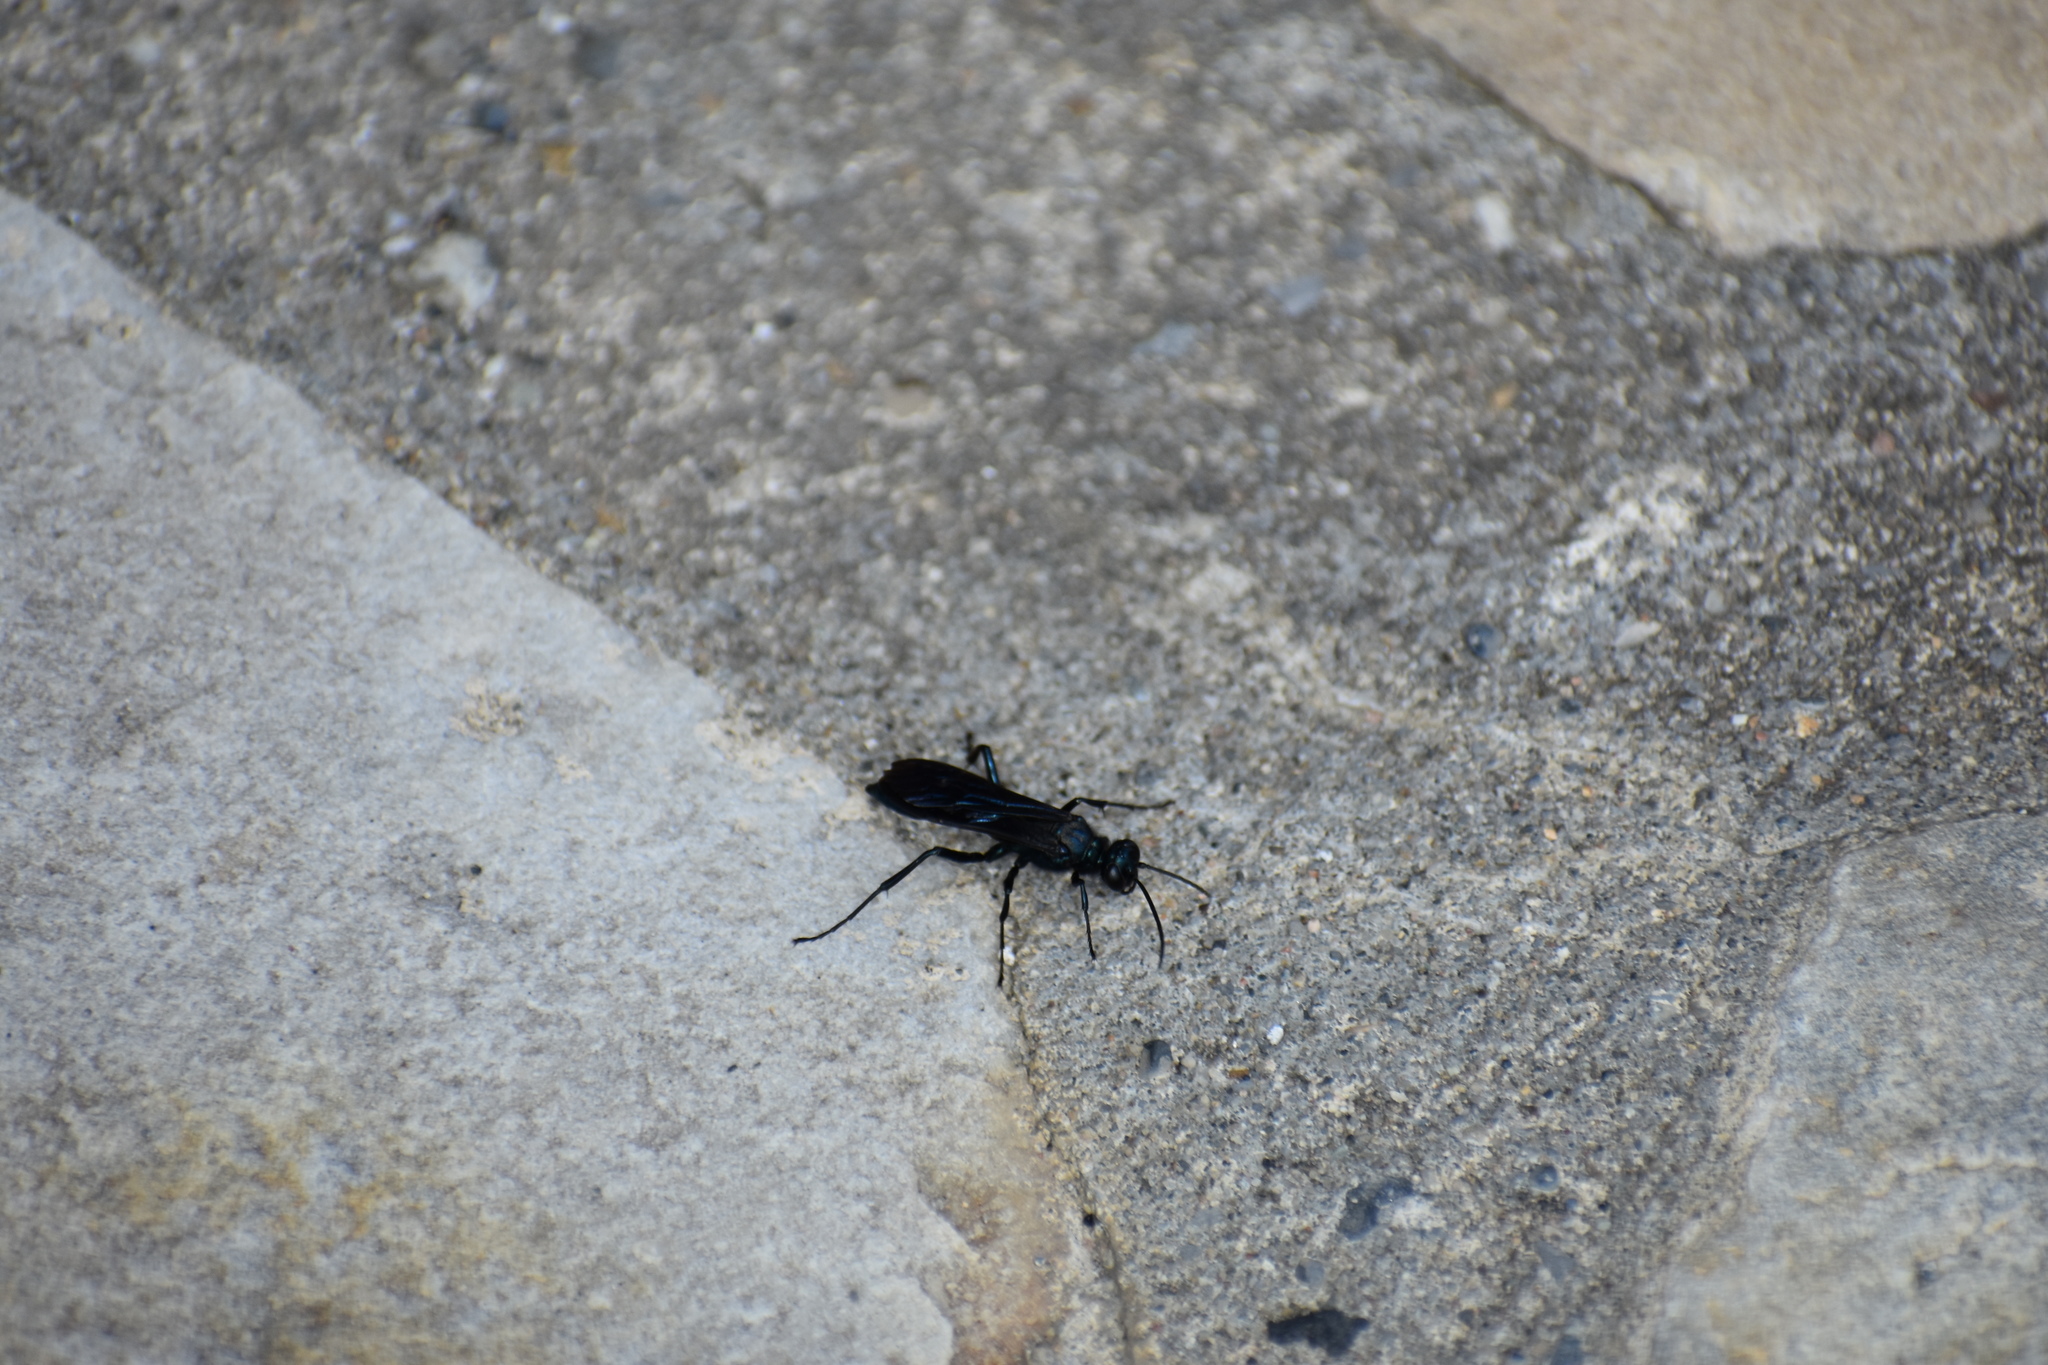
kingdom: Animalia
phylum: Arthropoda
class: Insecta
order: Hymenoptera
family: Sphecidae
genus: Chalybion
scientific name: Chalybion californicum
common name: Mud dauber
